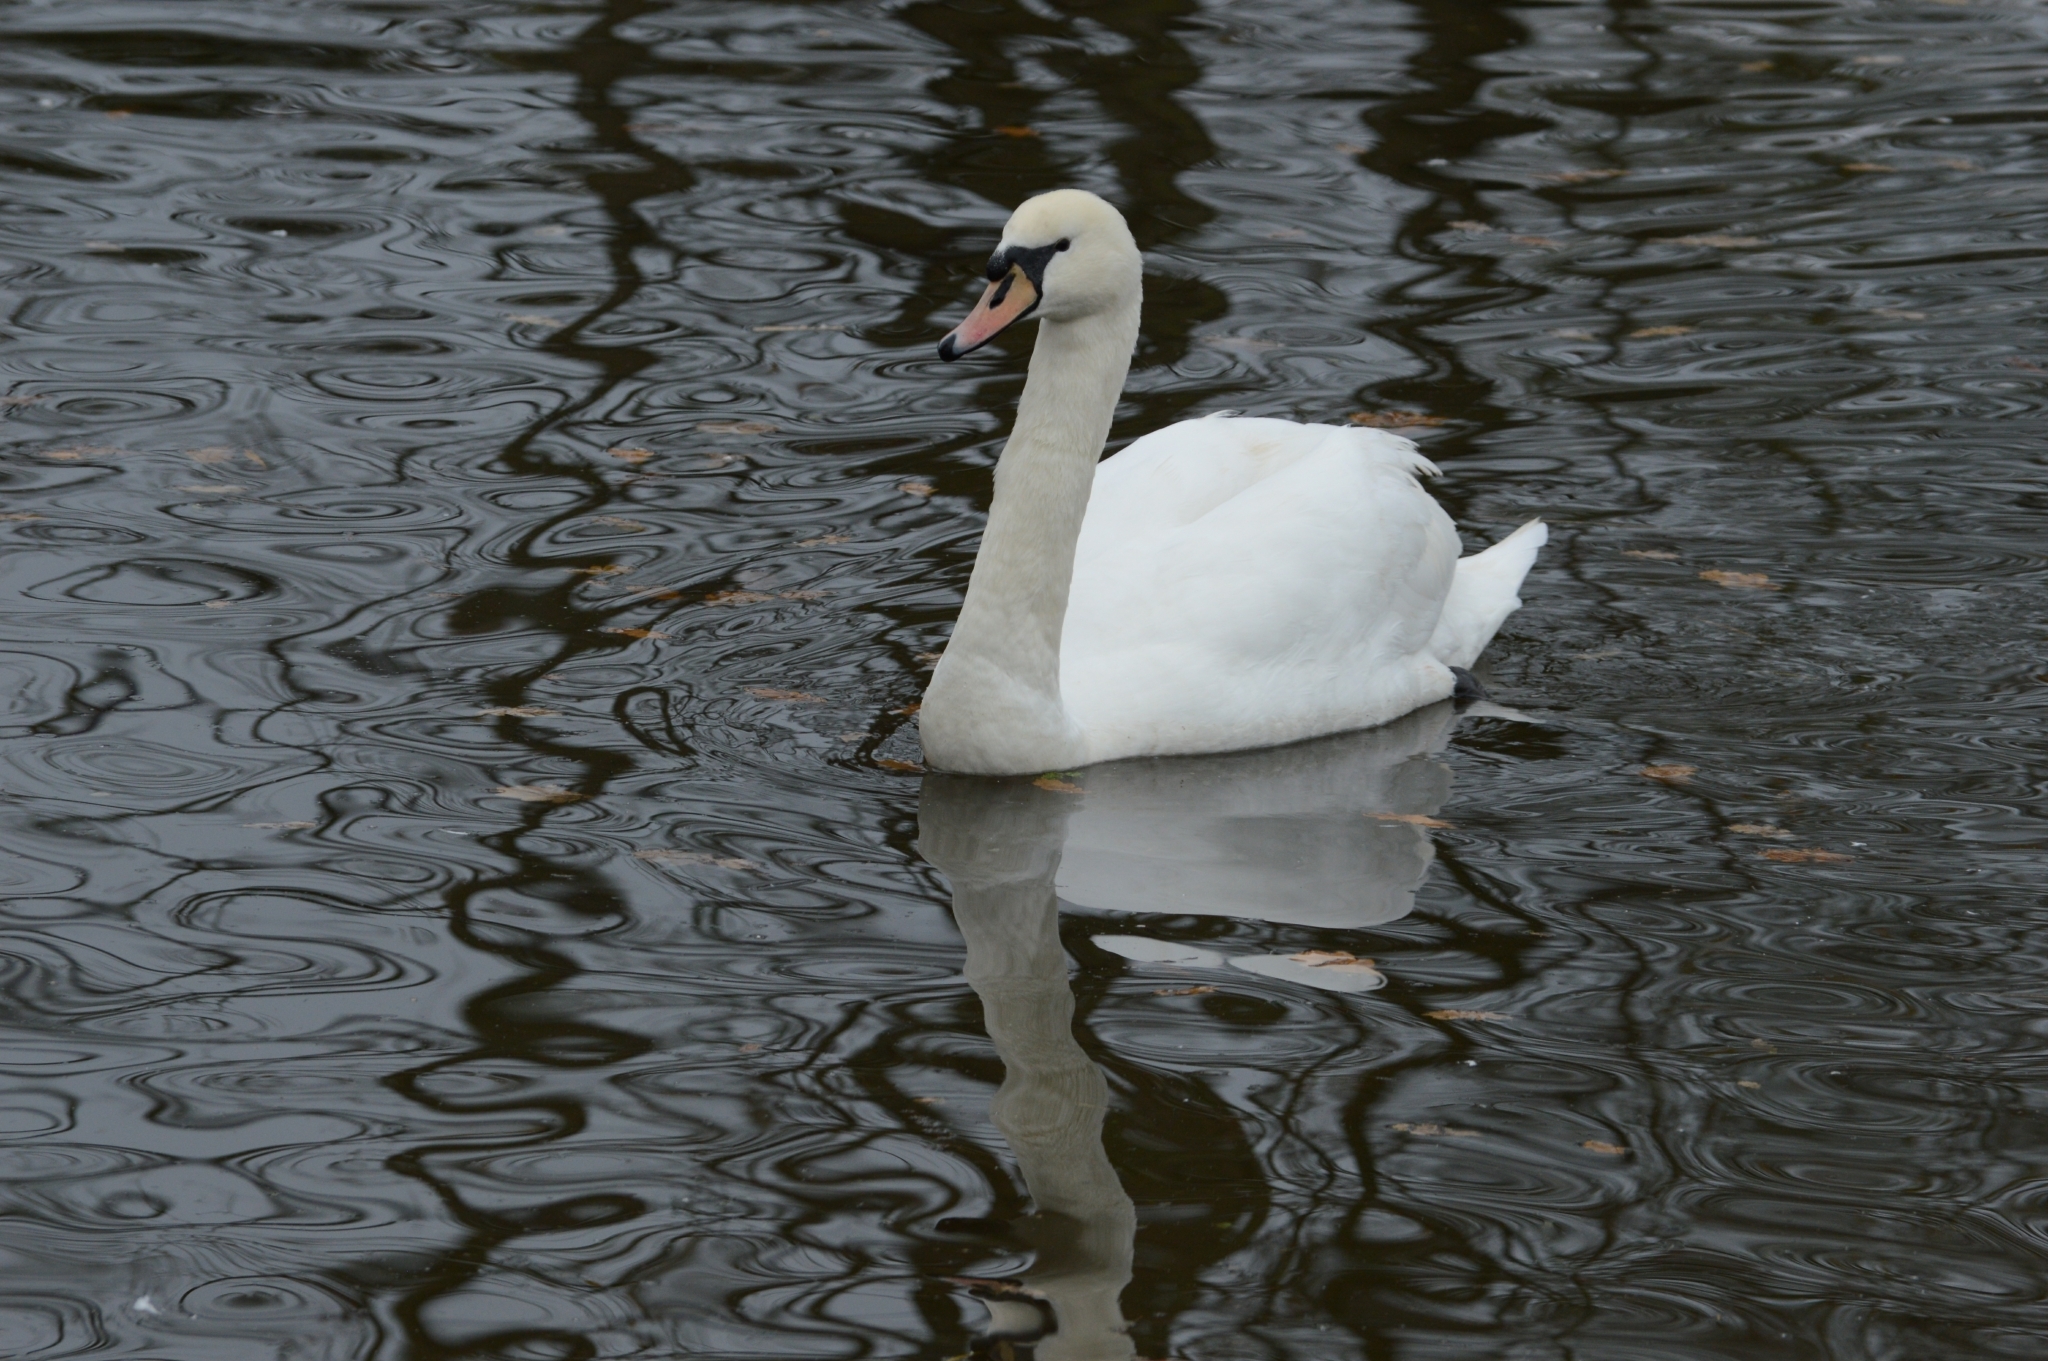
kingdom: Animalia
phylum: Chordata
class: Aves
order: Anseriformes
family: Anatidae
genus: Cygnus
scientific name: Cygnus olor
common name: Mute swan
